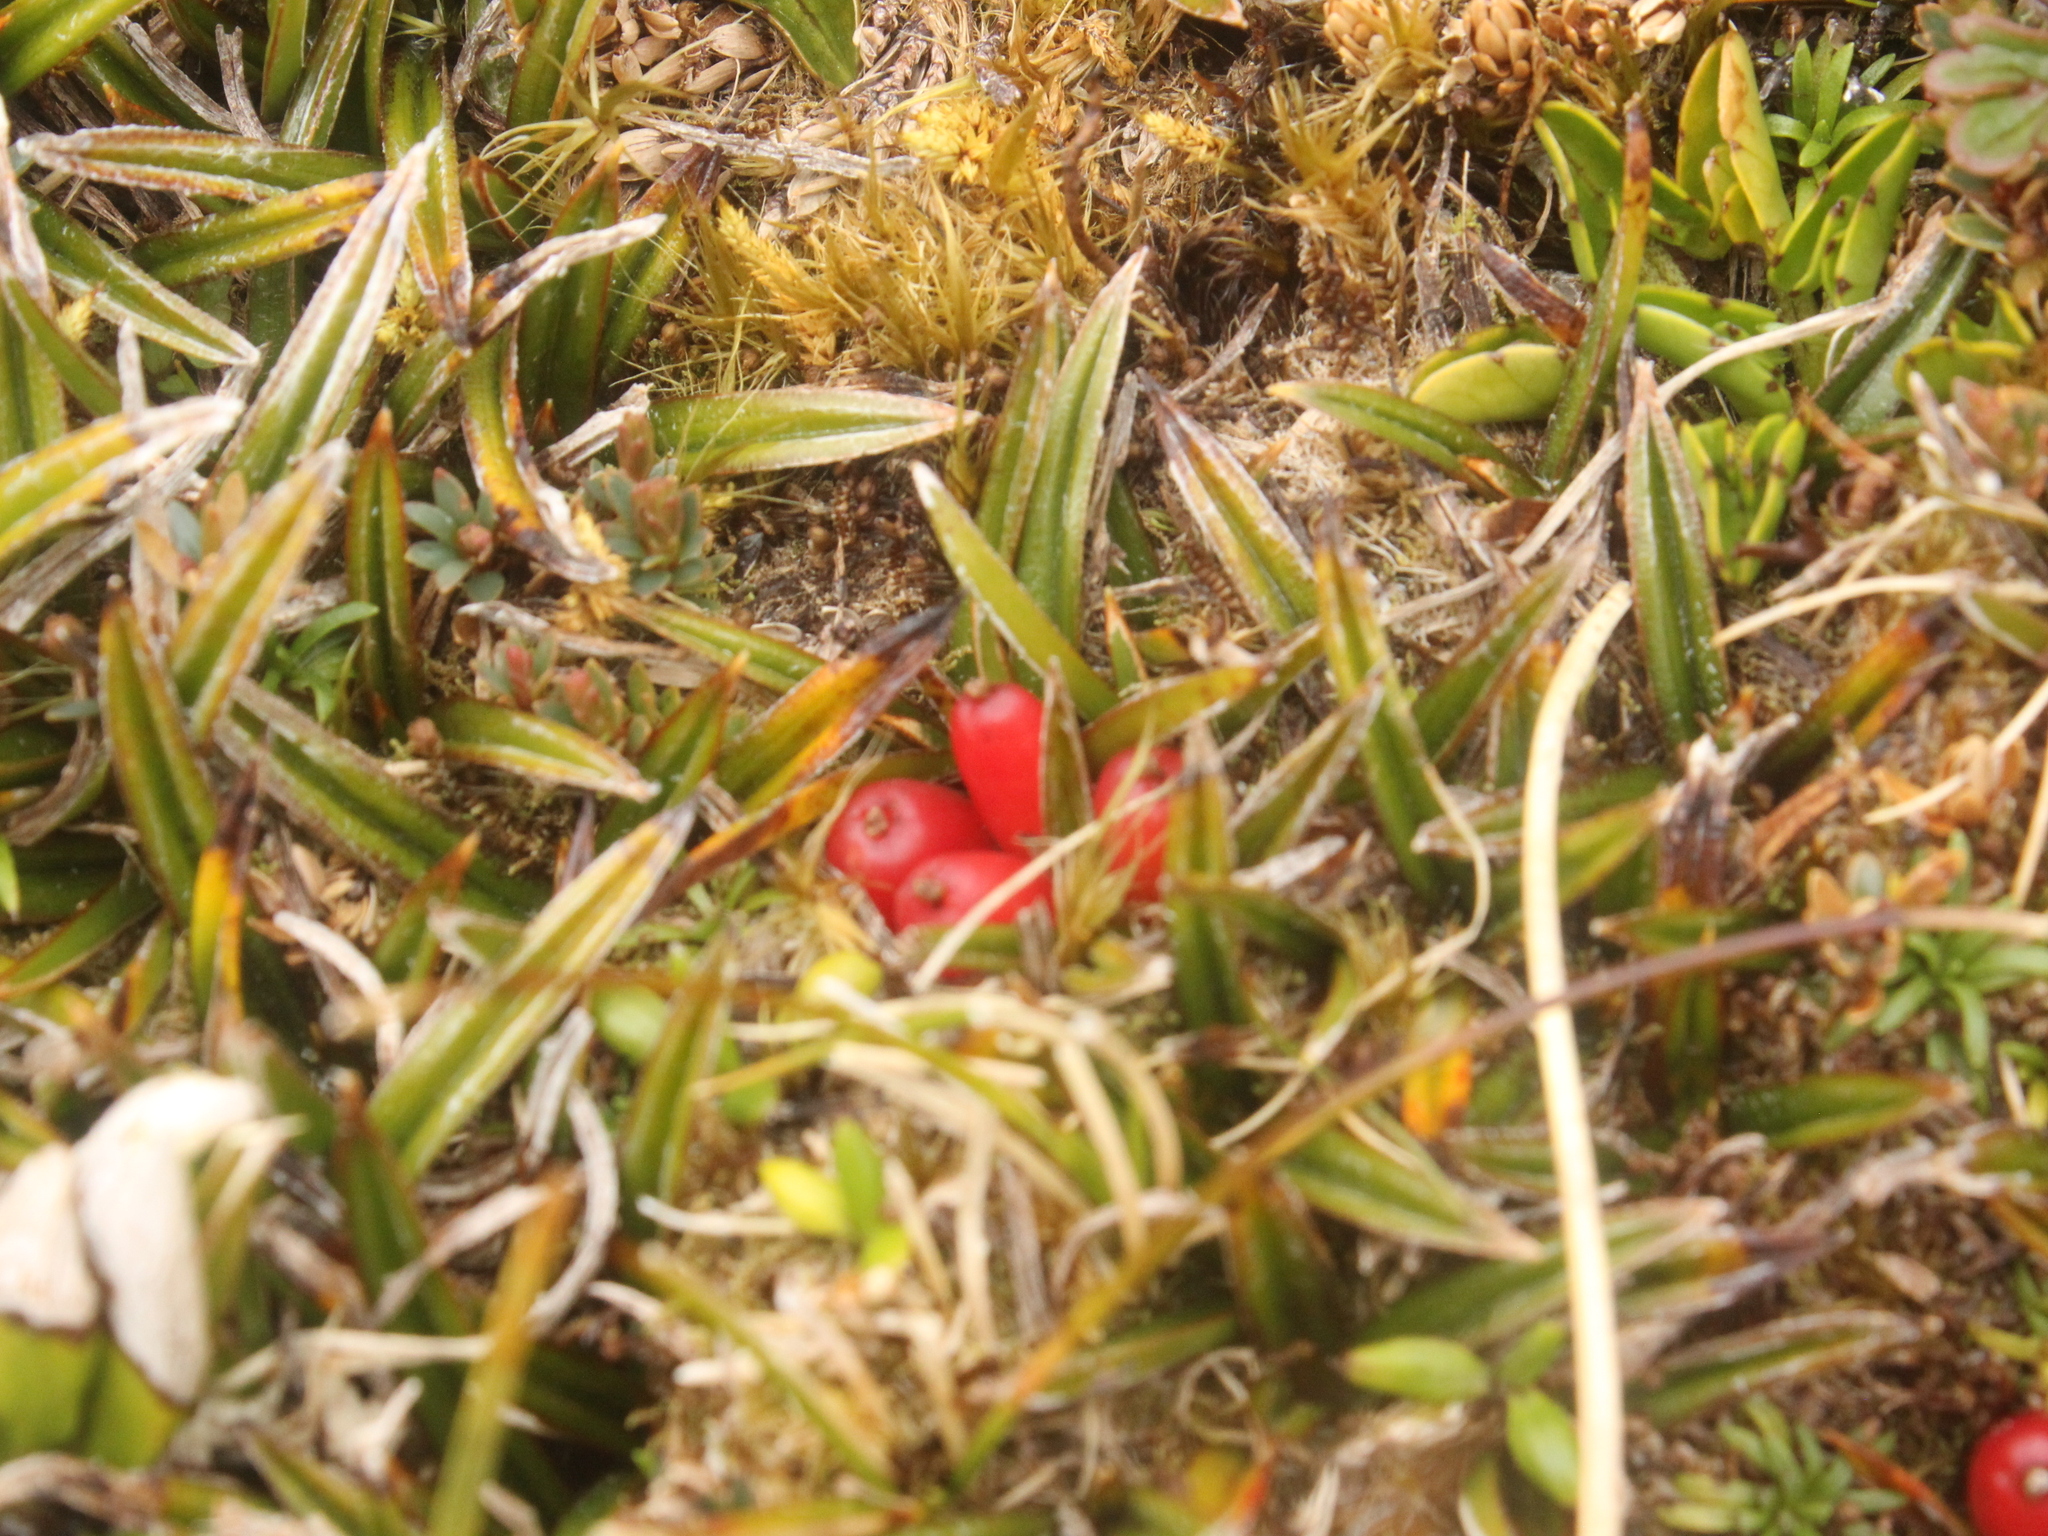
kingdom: Plantae
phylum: Tracheophyta
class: Liliopsida
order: Asparagales
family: Asteliaceae
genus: Astelia
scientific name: Astelia linearis
